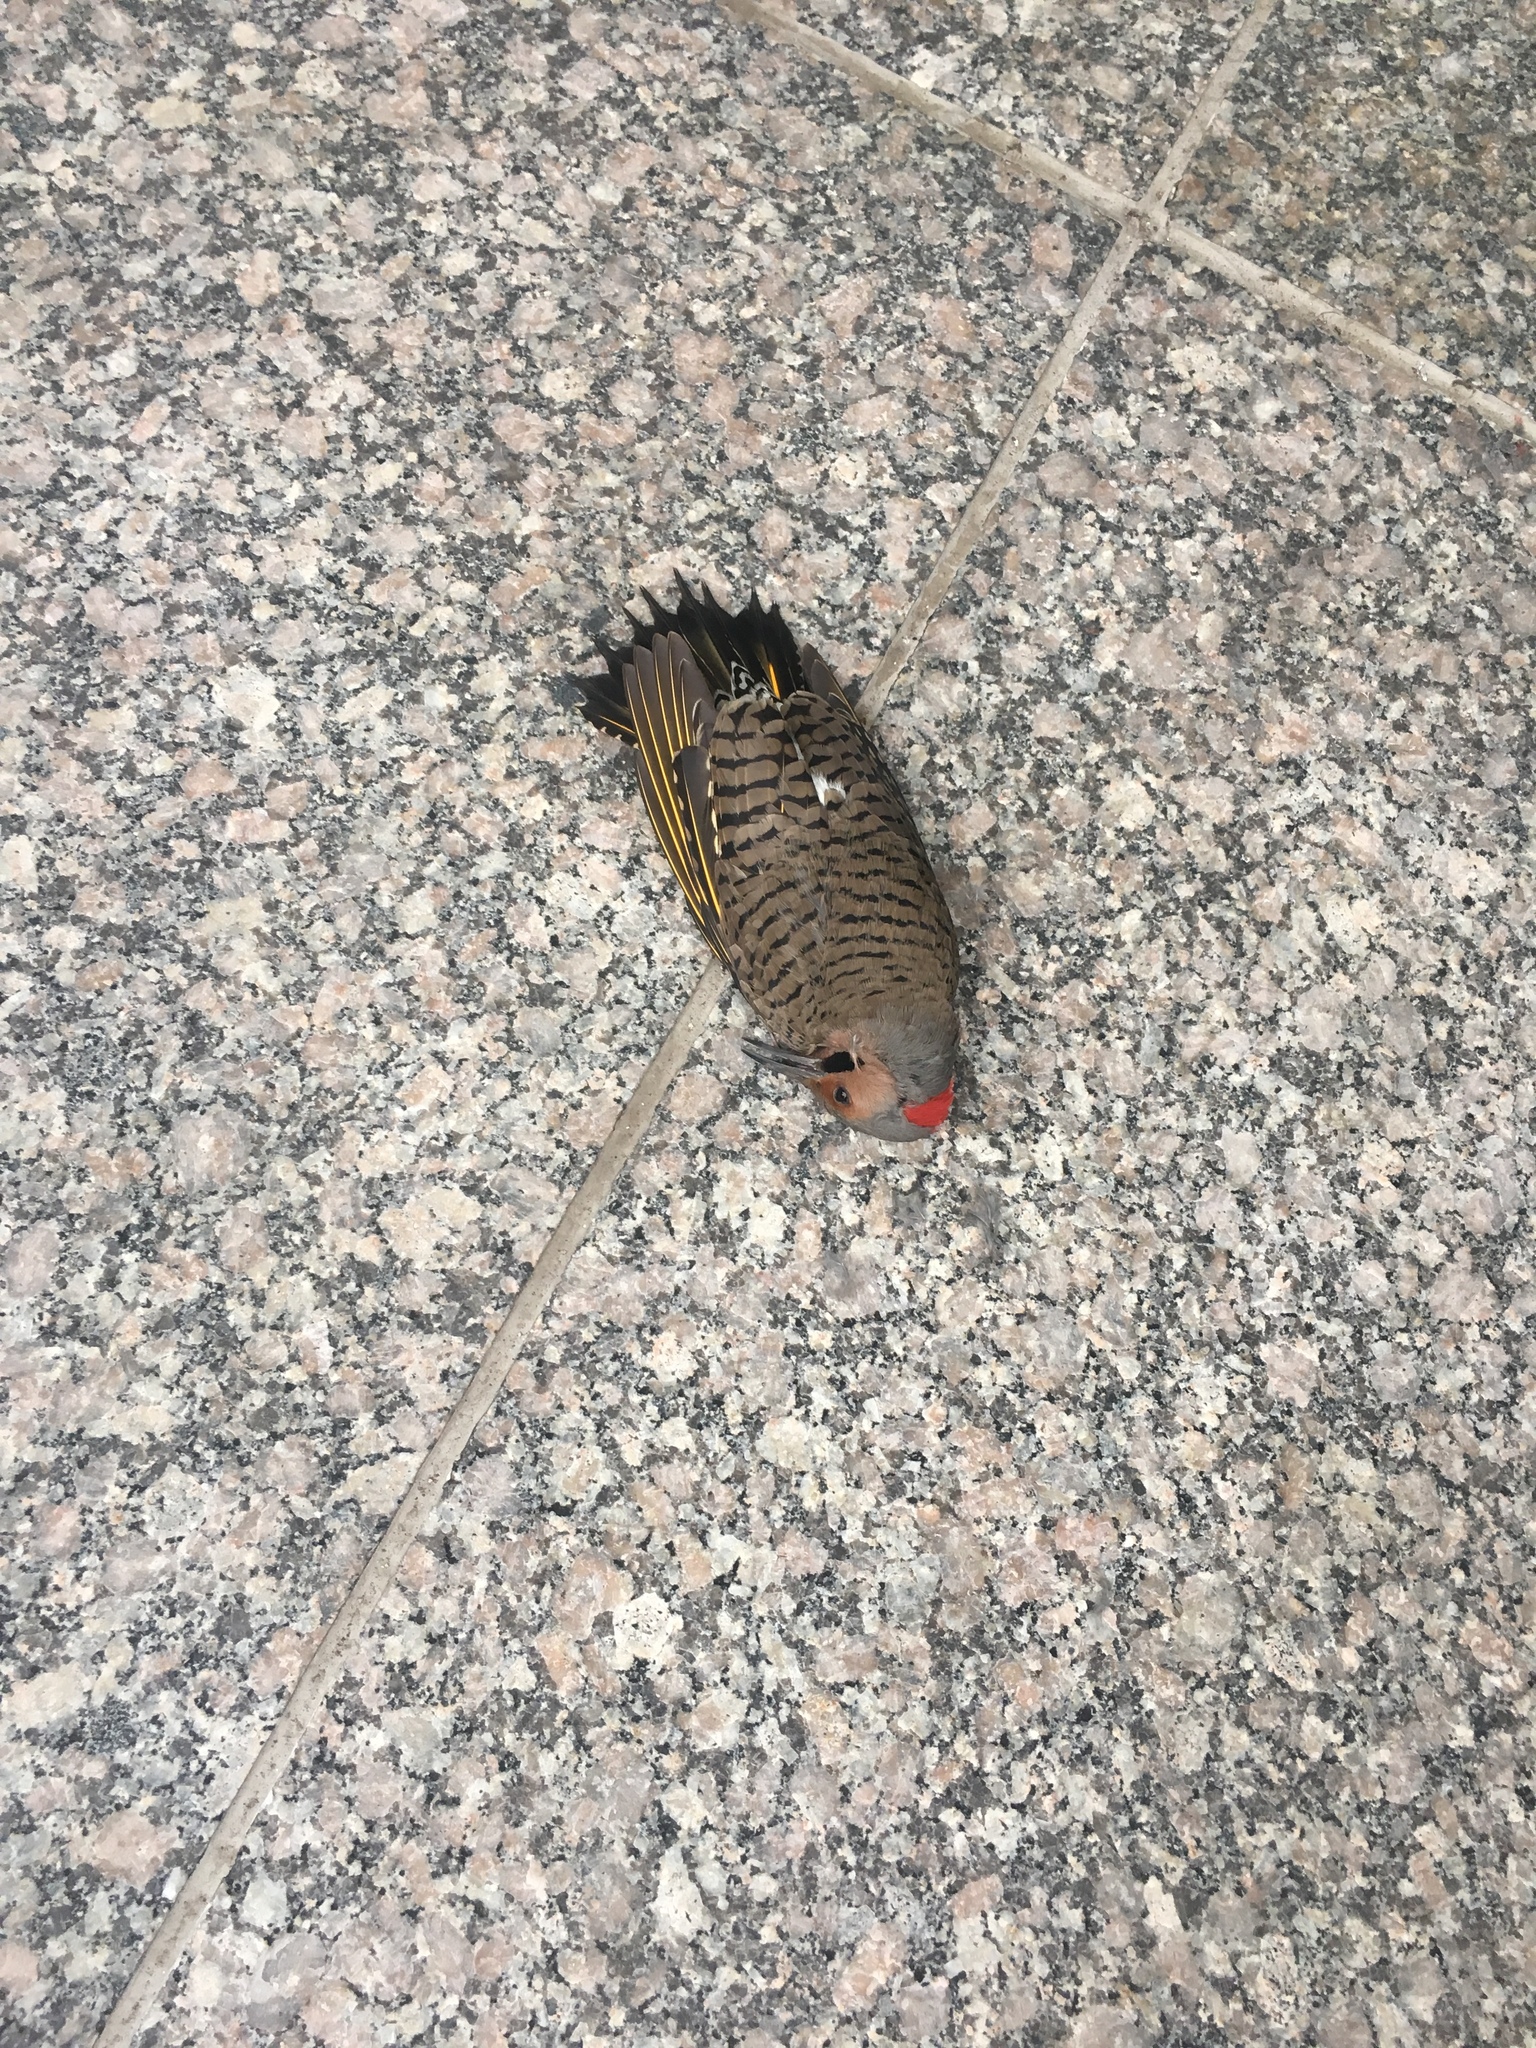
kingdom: Animalia
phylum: Chordata
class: Aves
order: Piciformes
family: Picidae
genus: Colaptes
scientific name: Colaptes auratus
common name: Northern flicker
